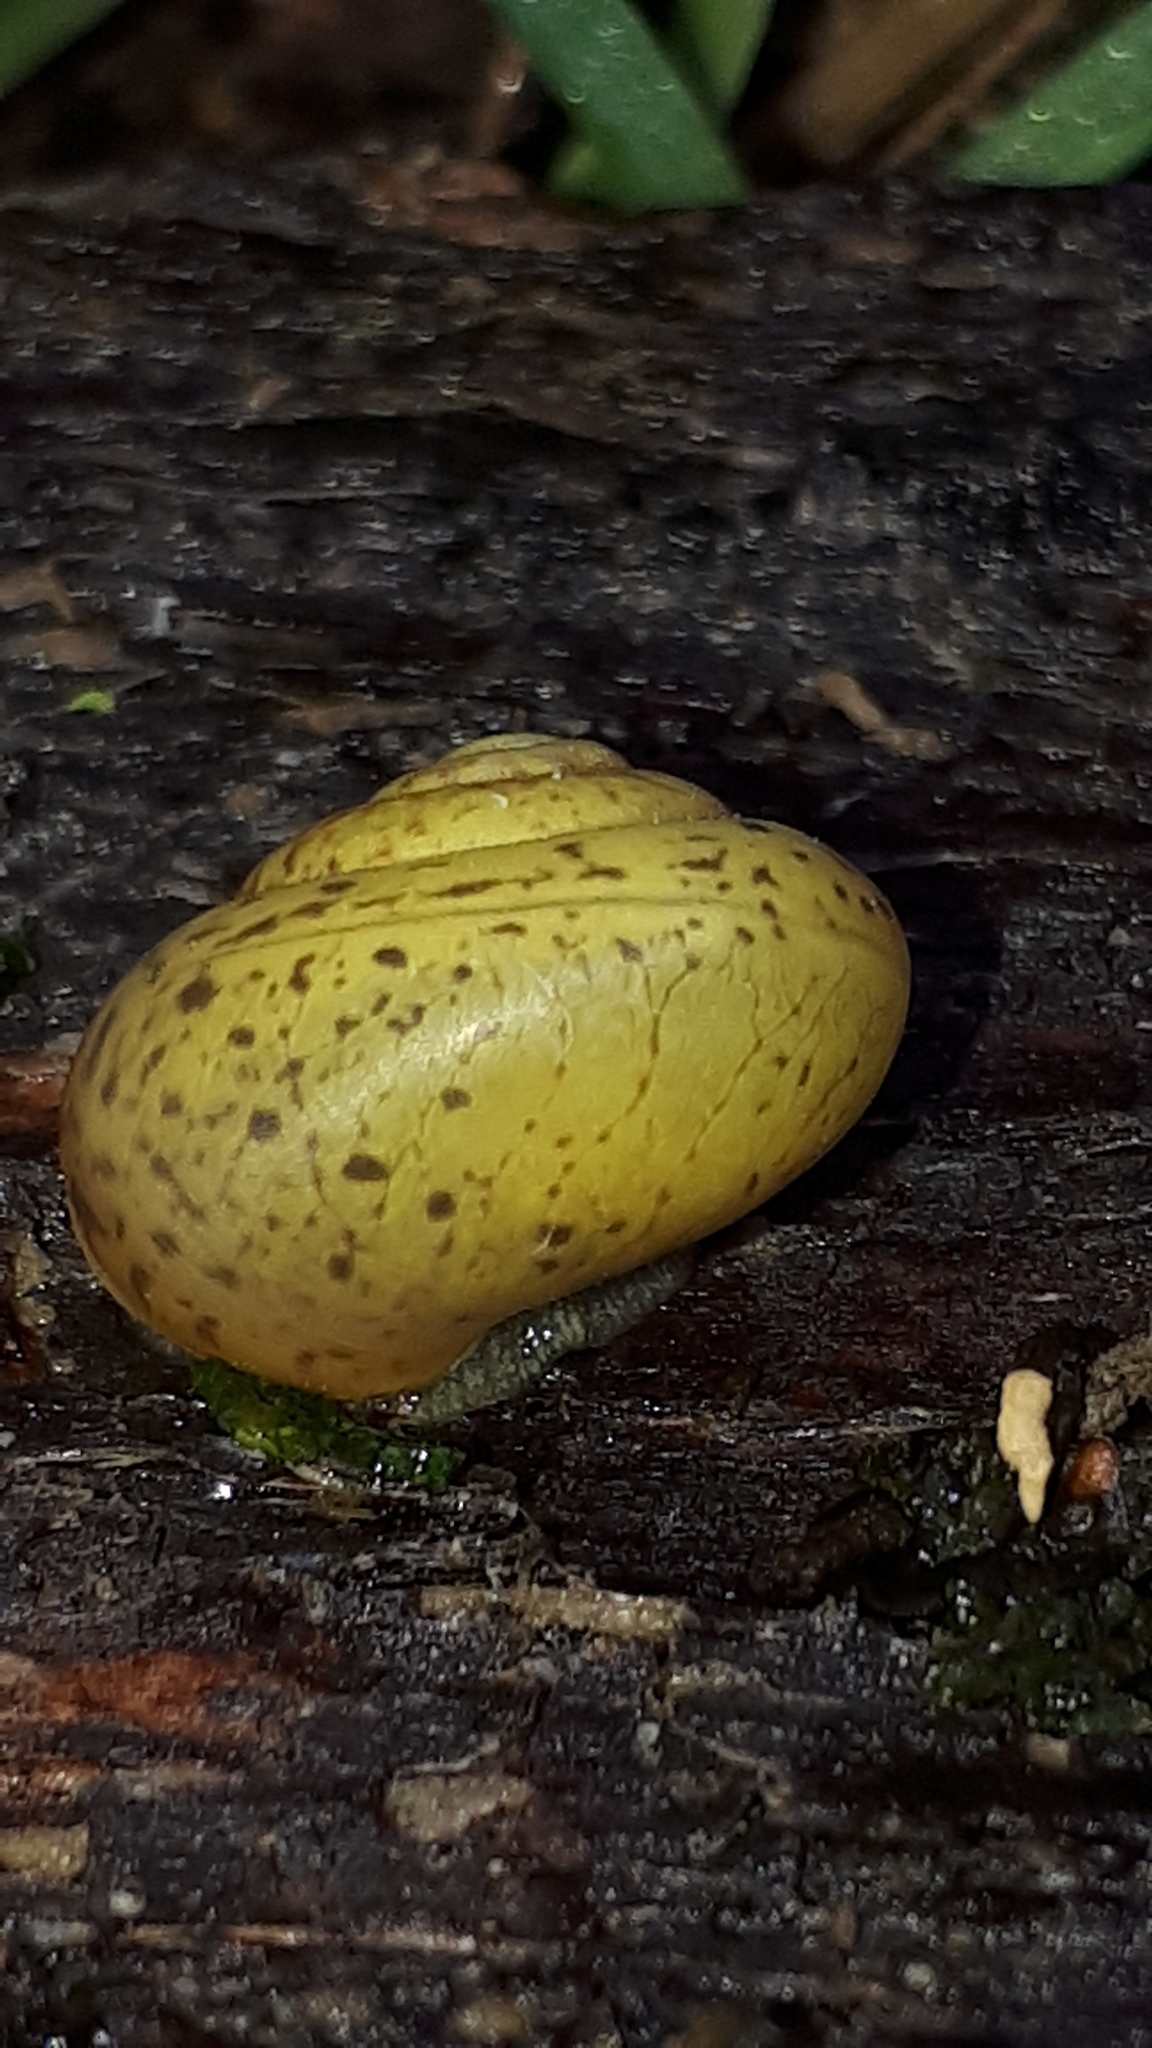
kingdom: Animalia
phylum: Mollusca
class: Gastropoda
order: Stylommatophora
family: Camaenidae
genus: Fruticicola
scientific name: Fruticicola fruticum
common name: Bush snail
